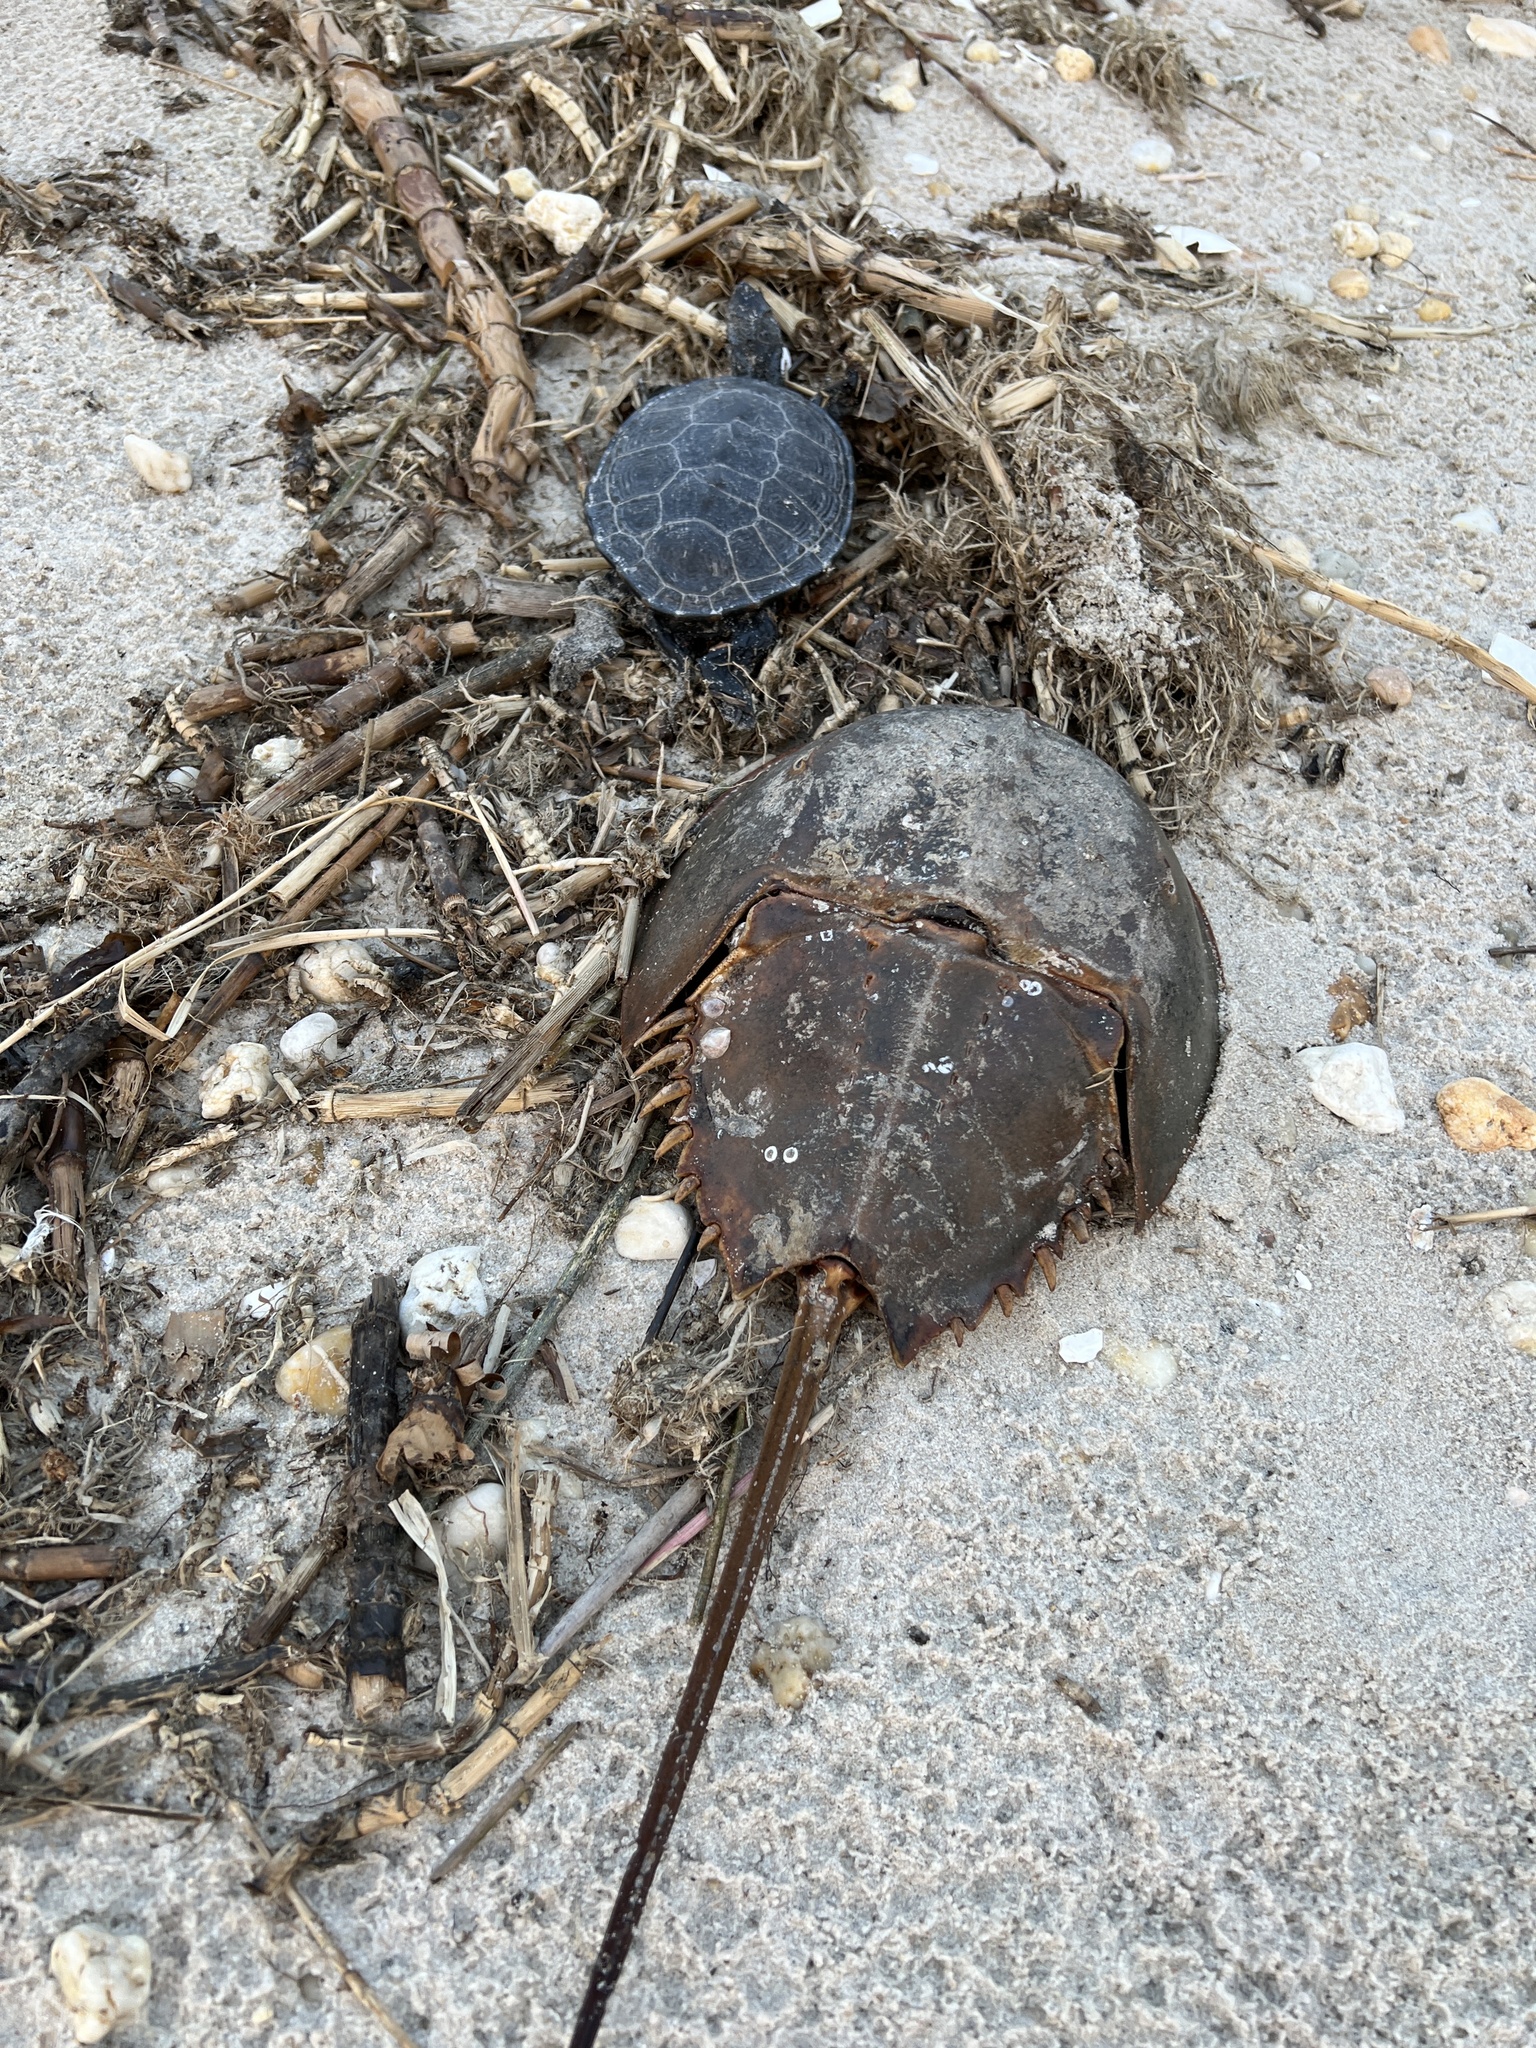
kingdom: Animalia
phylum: Chordata
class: Testudines
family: Emydidae
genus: Malaclemys
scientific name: Malaclemys terrapin
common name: Diamondback terrapin
